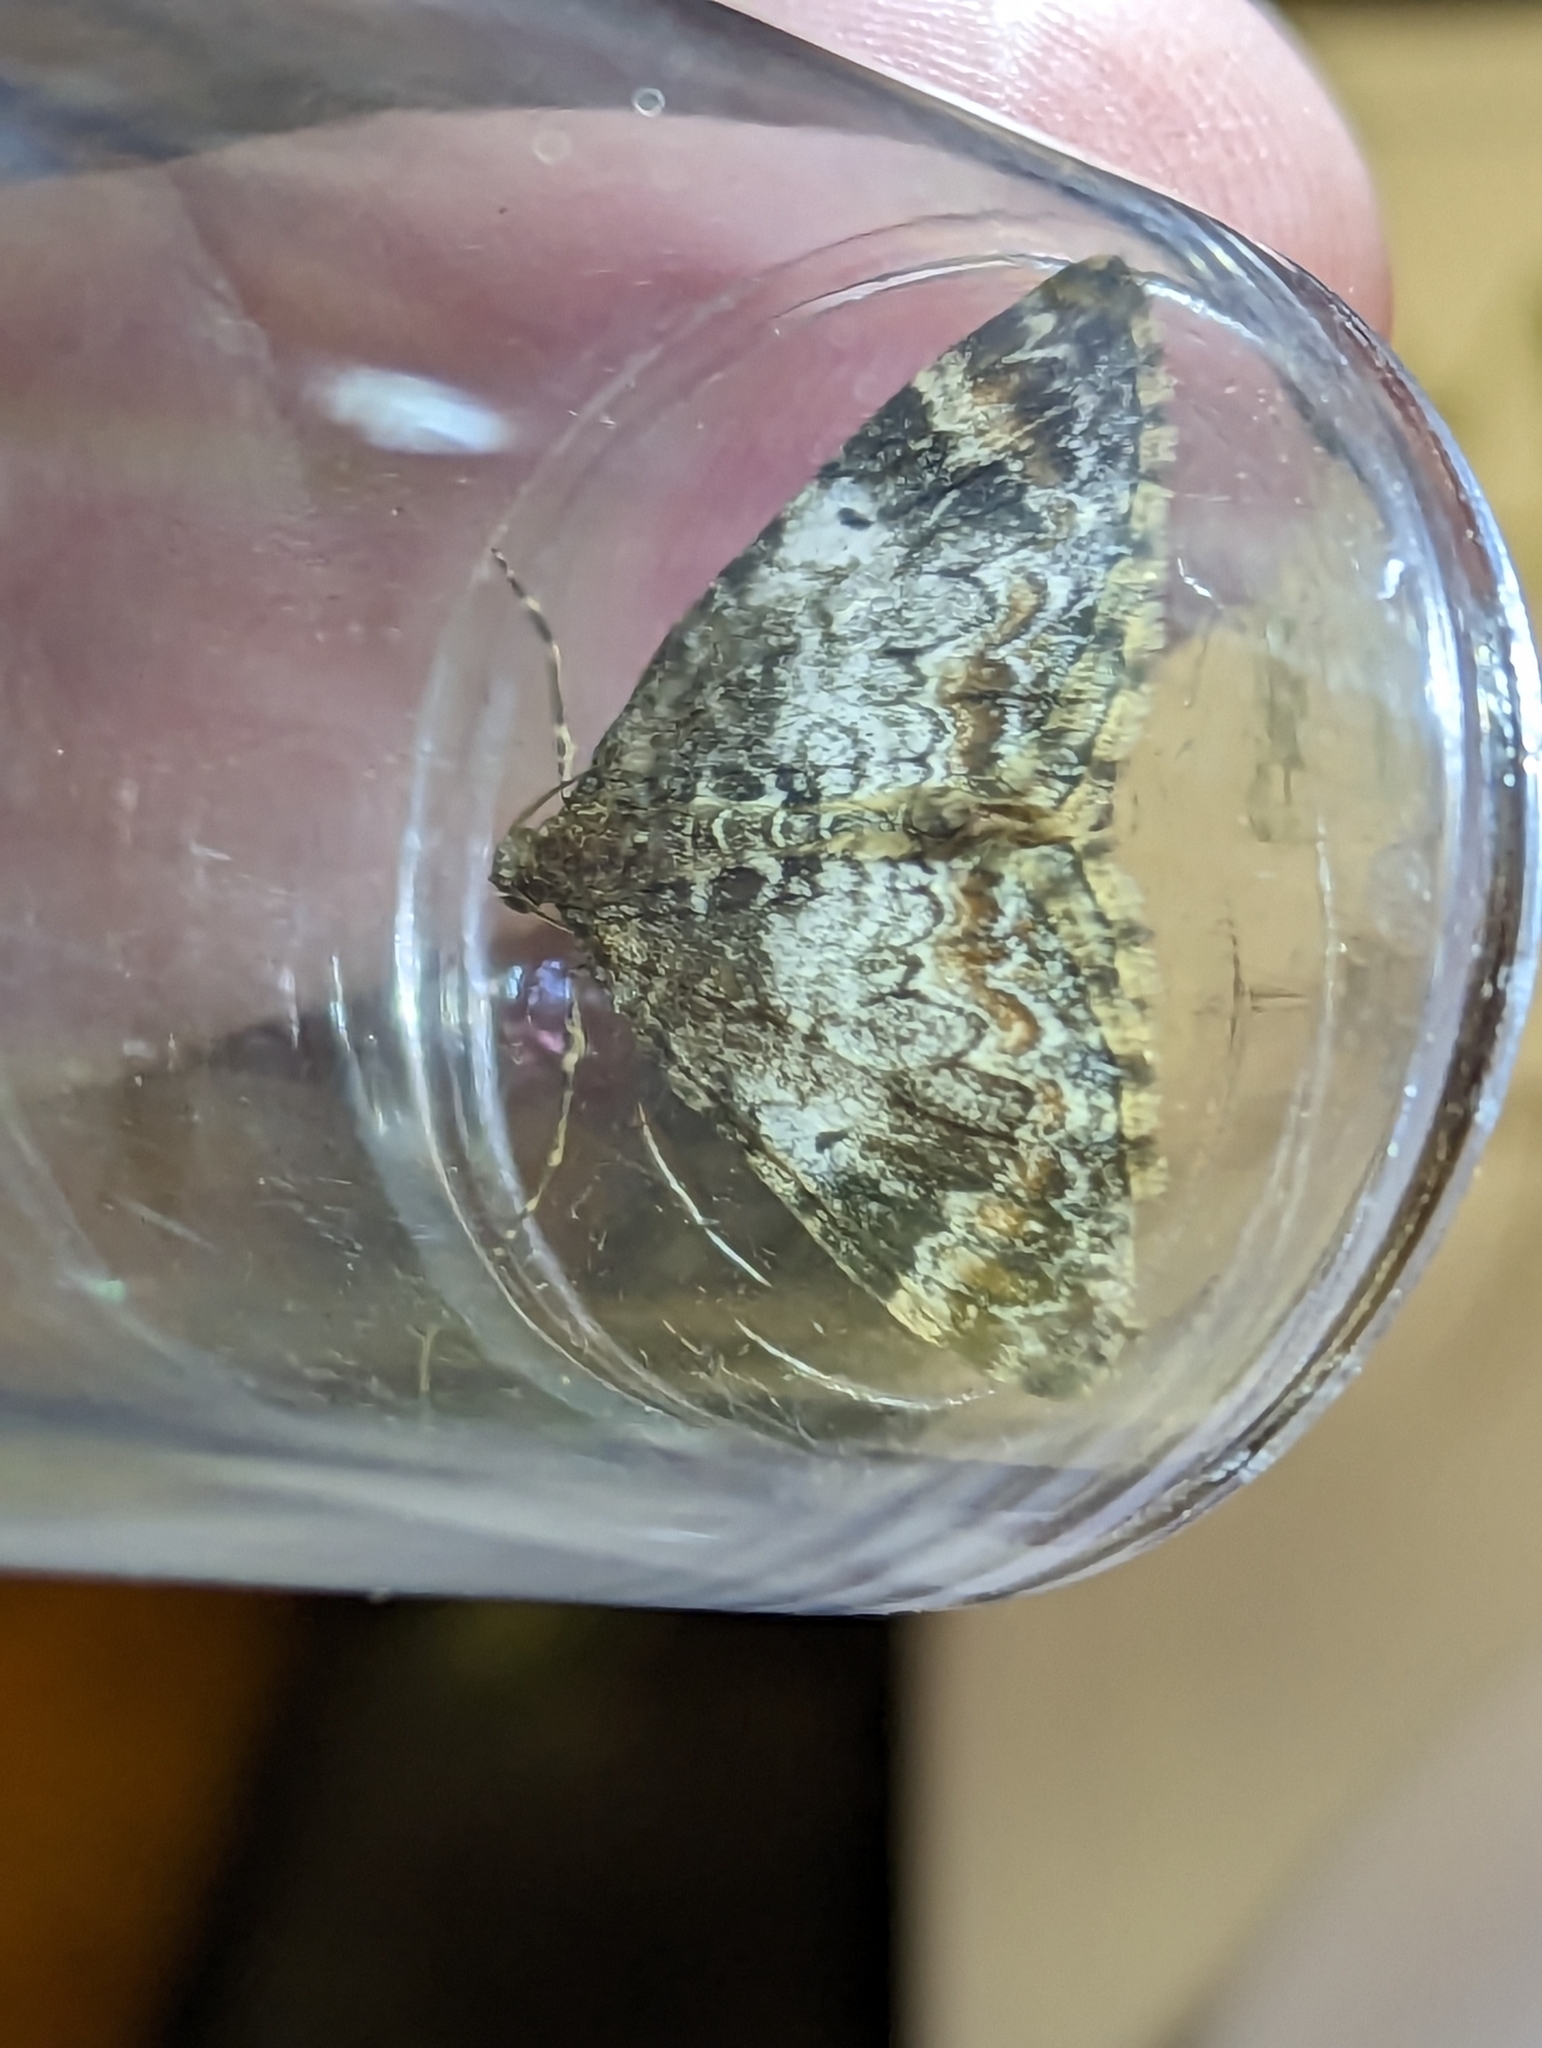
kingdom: Animalia
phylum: Arthropoda
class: Insecta
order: Lepidoptera
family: Geometridae
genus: Dysstroma
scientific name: Dysstroma truncata
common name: Common marbled carpet
